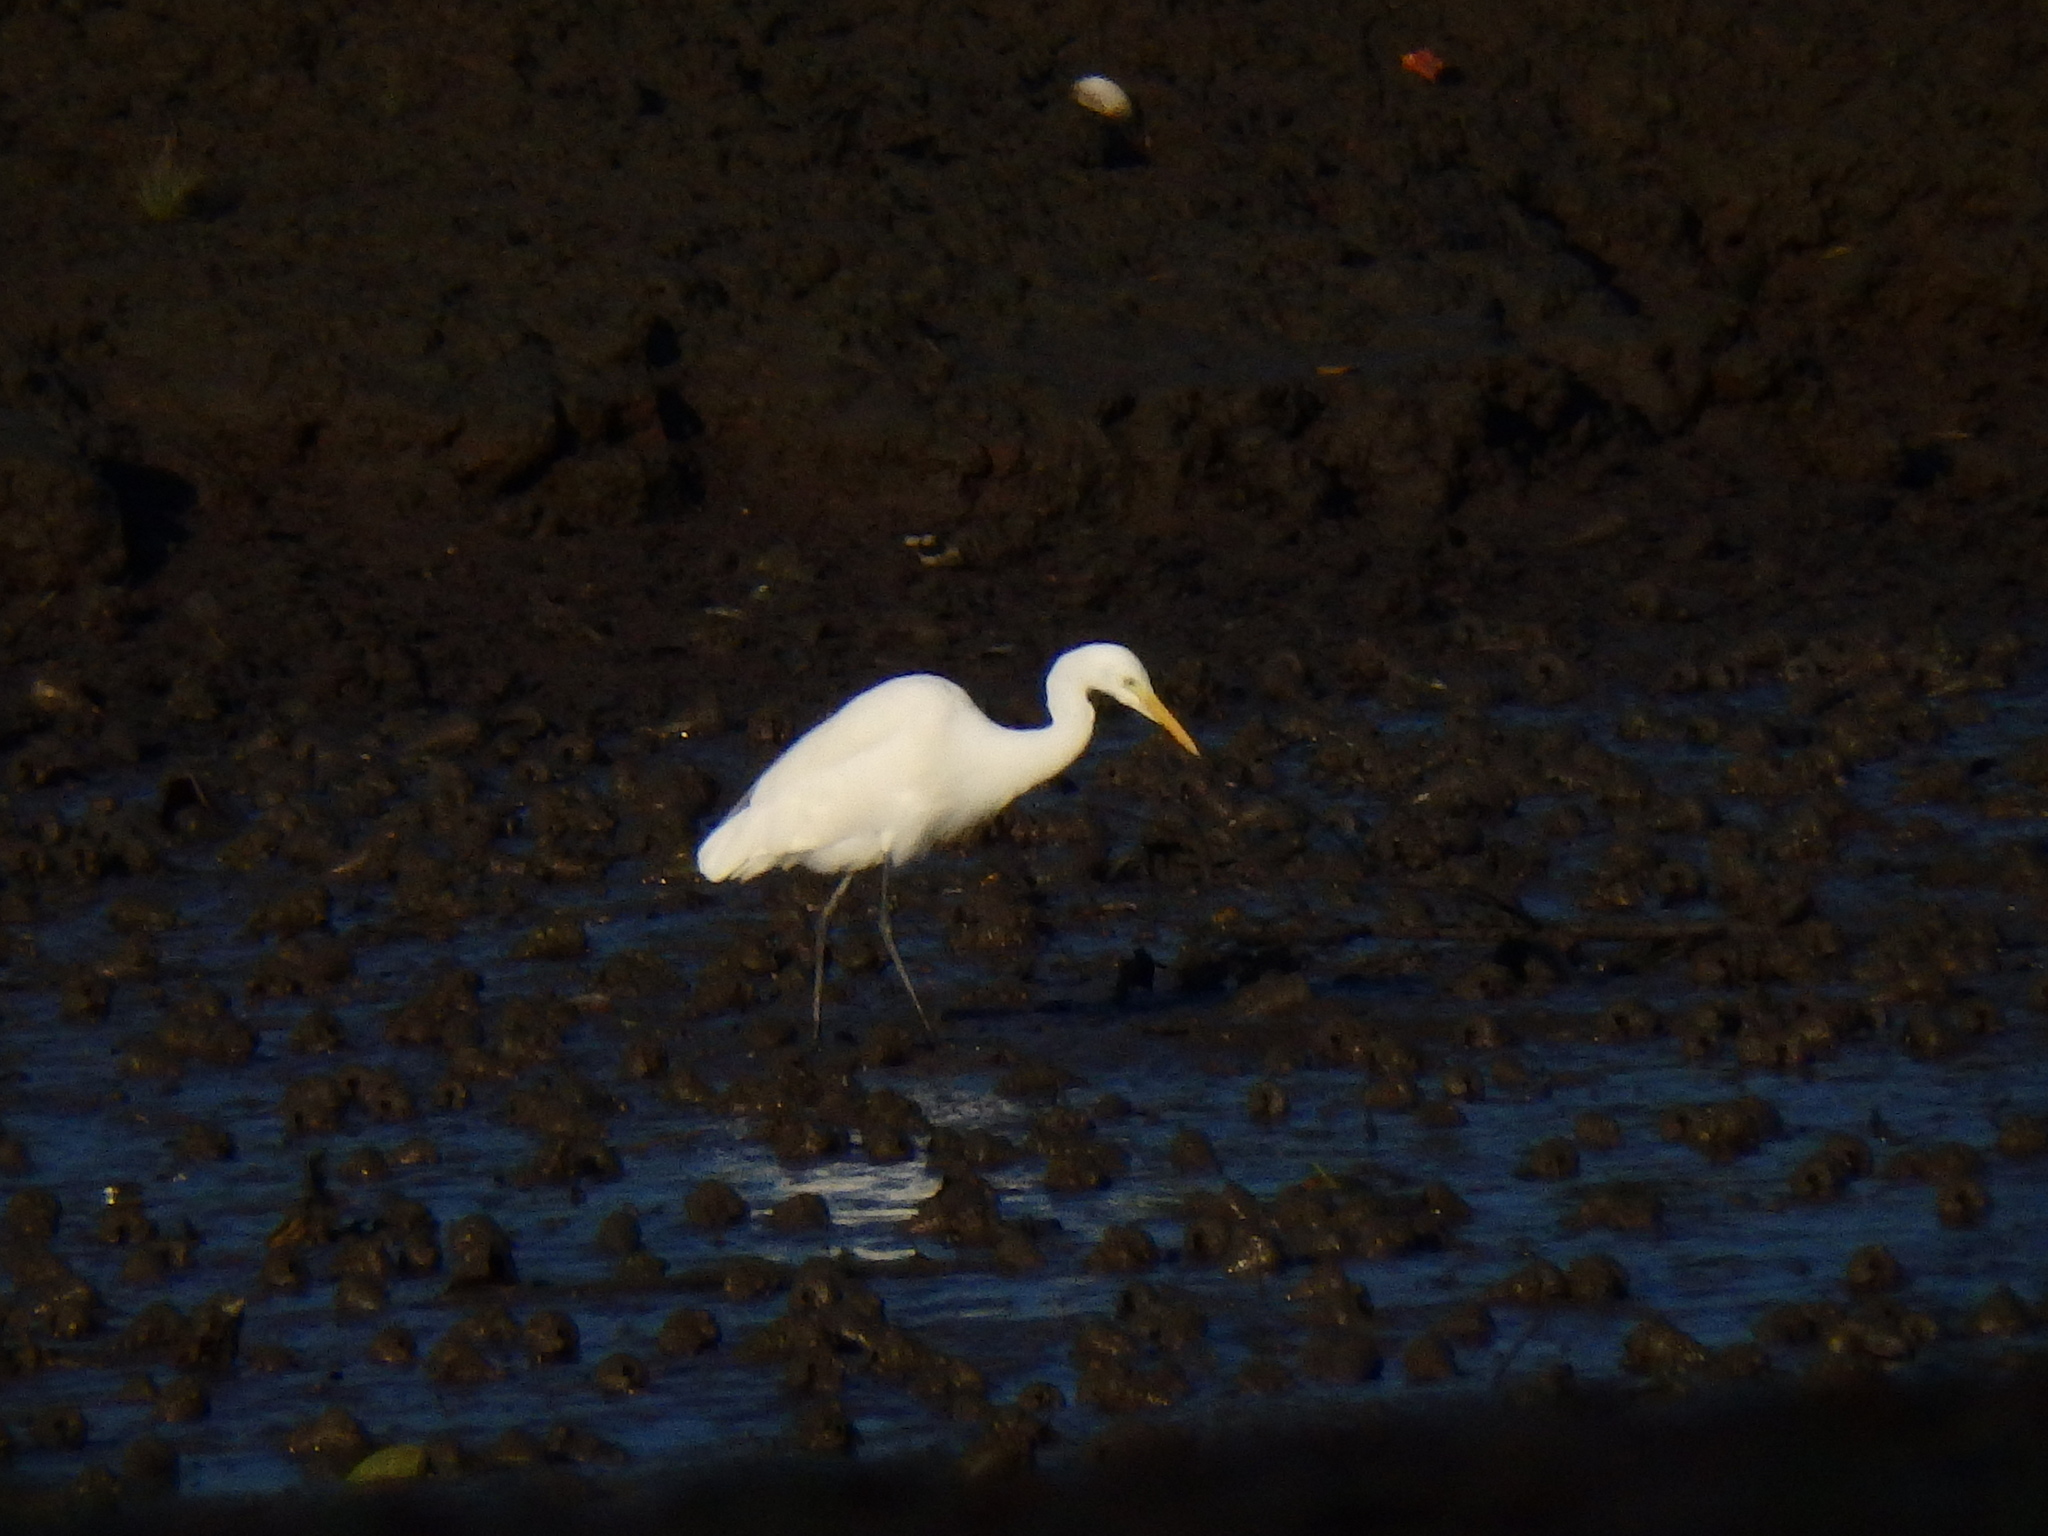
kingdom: Animalia
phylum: Chordata
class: Aves
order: Pelecaniformes
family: Ardeidae
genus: Egretta
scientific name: Egretta intermedia
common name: Intermediate egret
